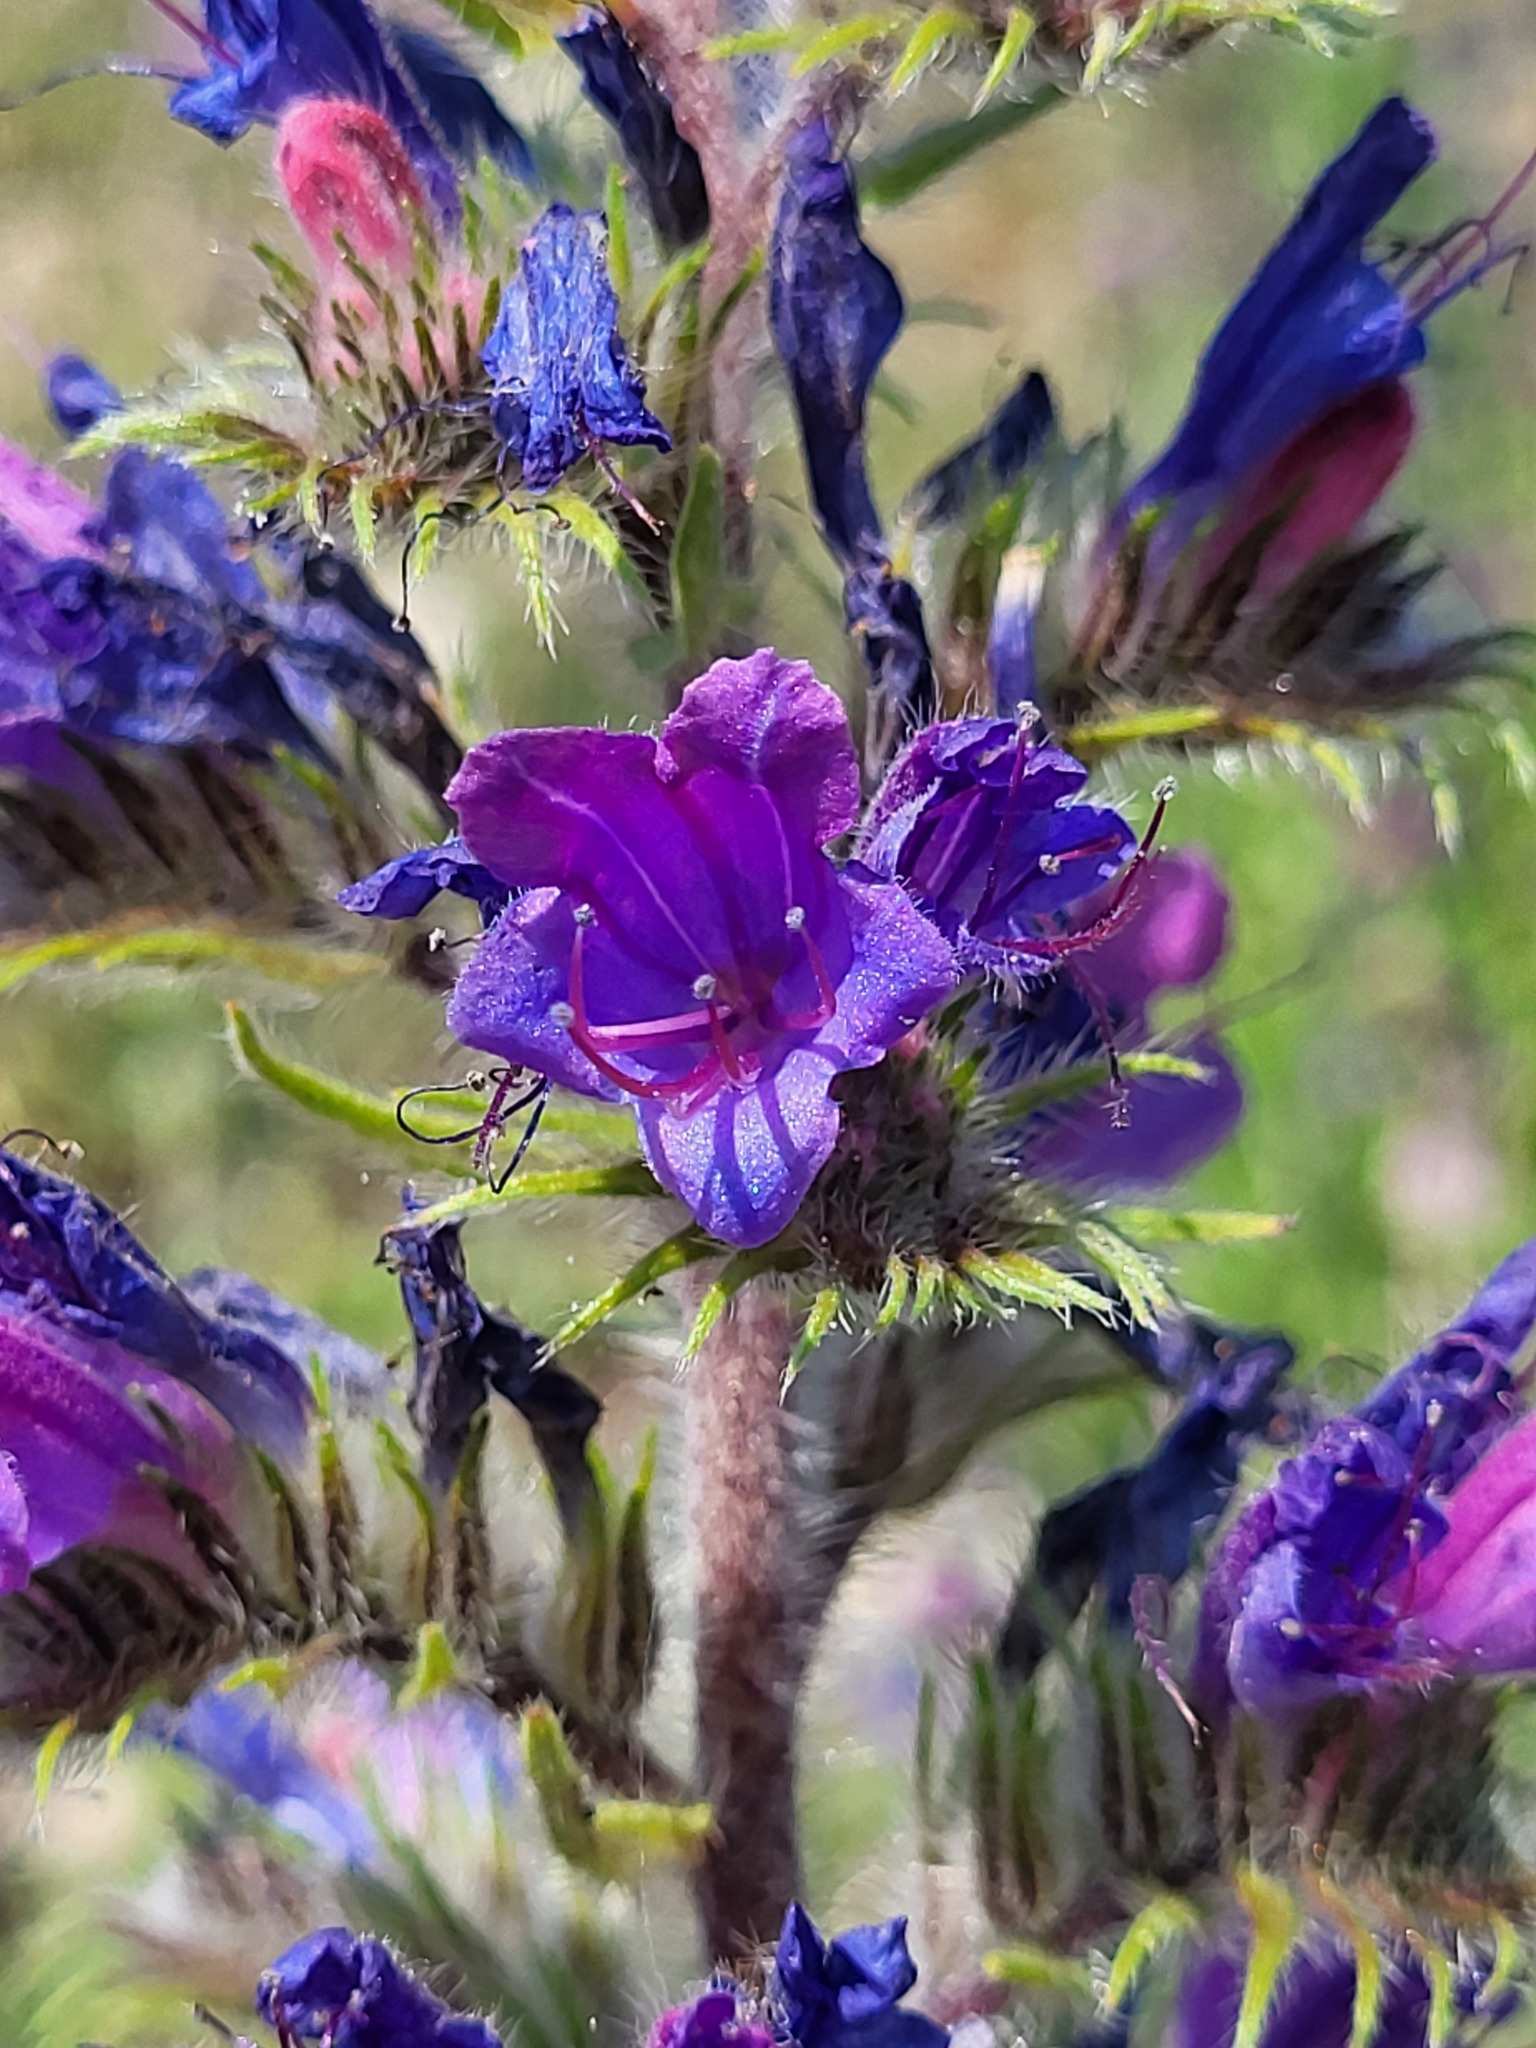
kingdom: Plantae
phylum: Tracheophyta
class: Magnoliopsida
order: Boraginales
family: Boraginaceae
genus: Echium
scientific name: Echium vulgare
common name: Common viper's bugloss
